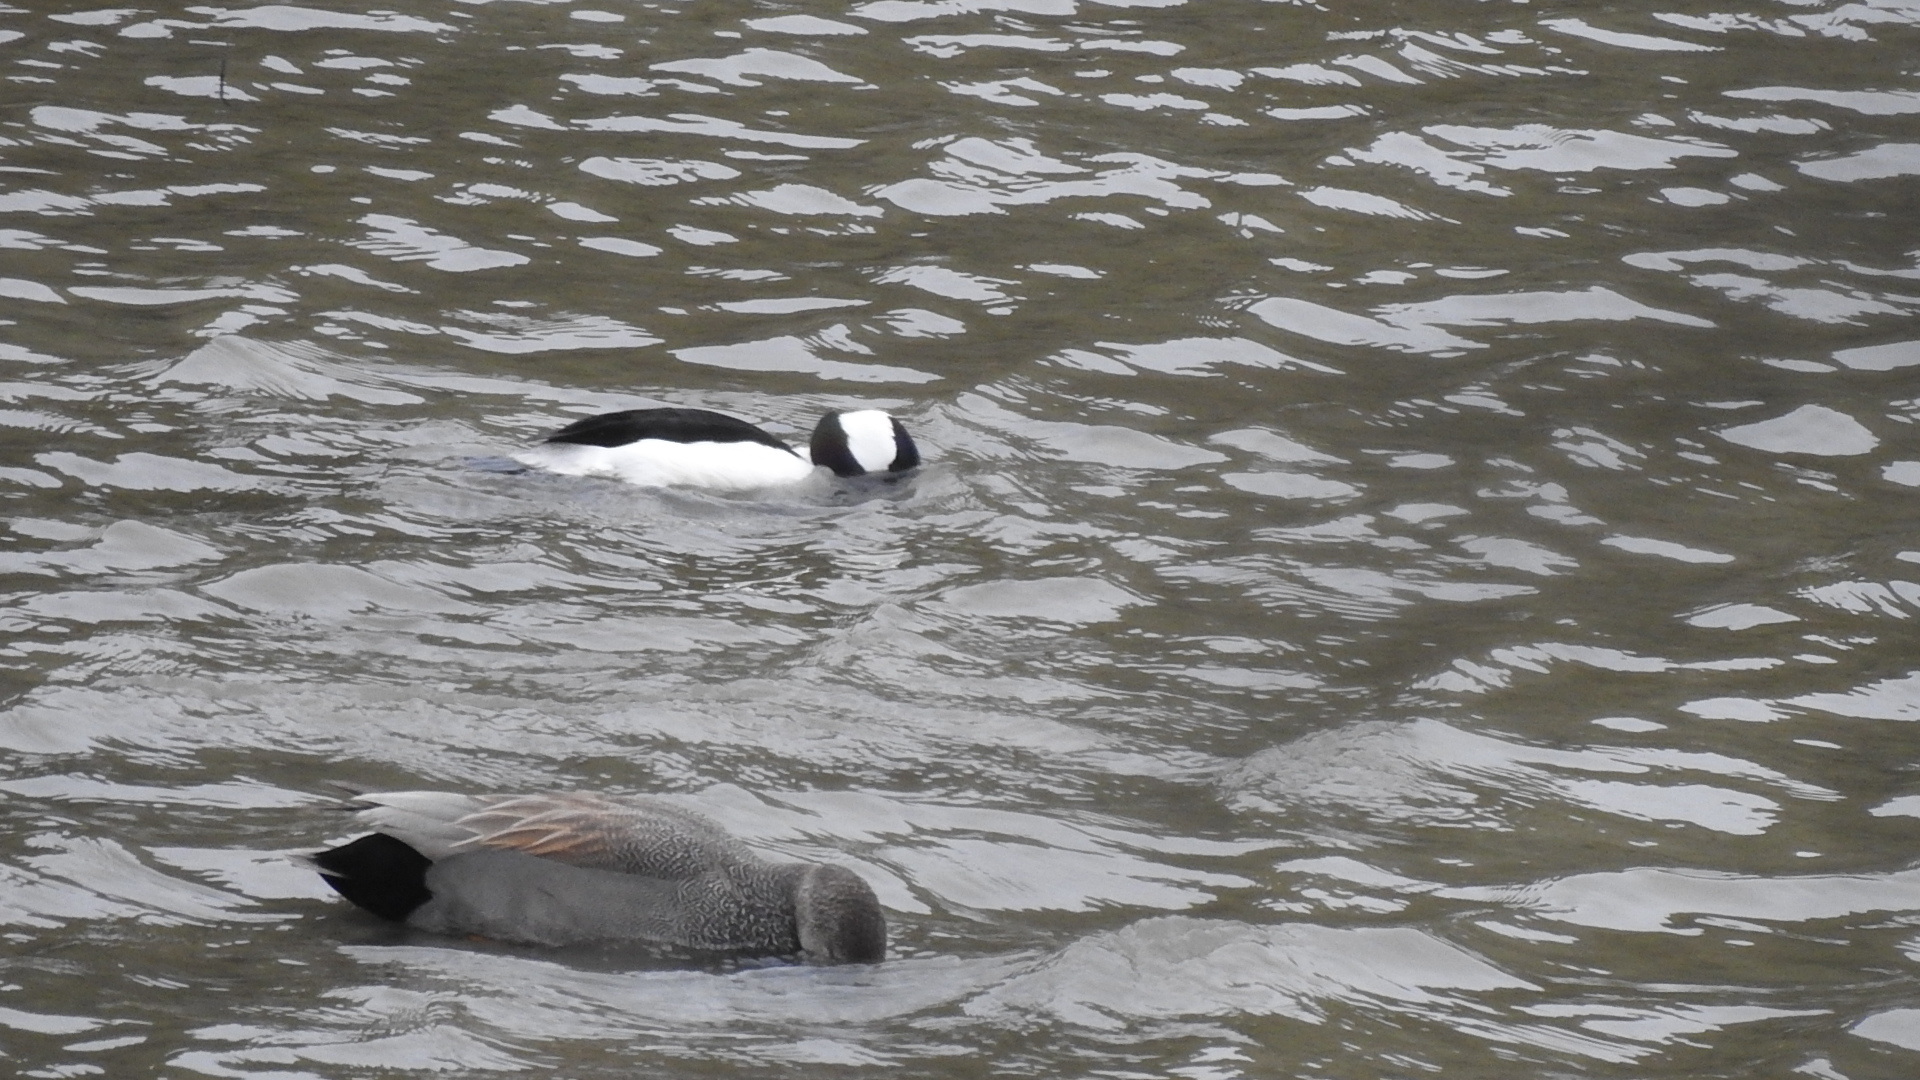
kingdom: Animalia
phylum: Chordata
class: Aves
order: Anseriformes
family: Anatidae
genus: Mareca
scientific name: Mareca strepera
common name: Gadwall
